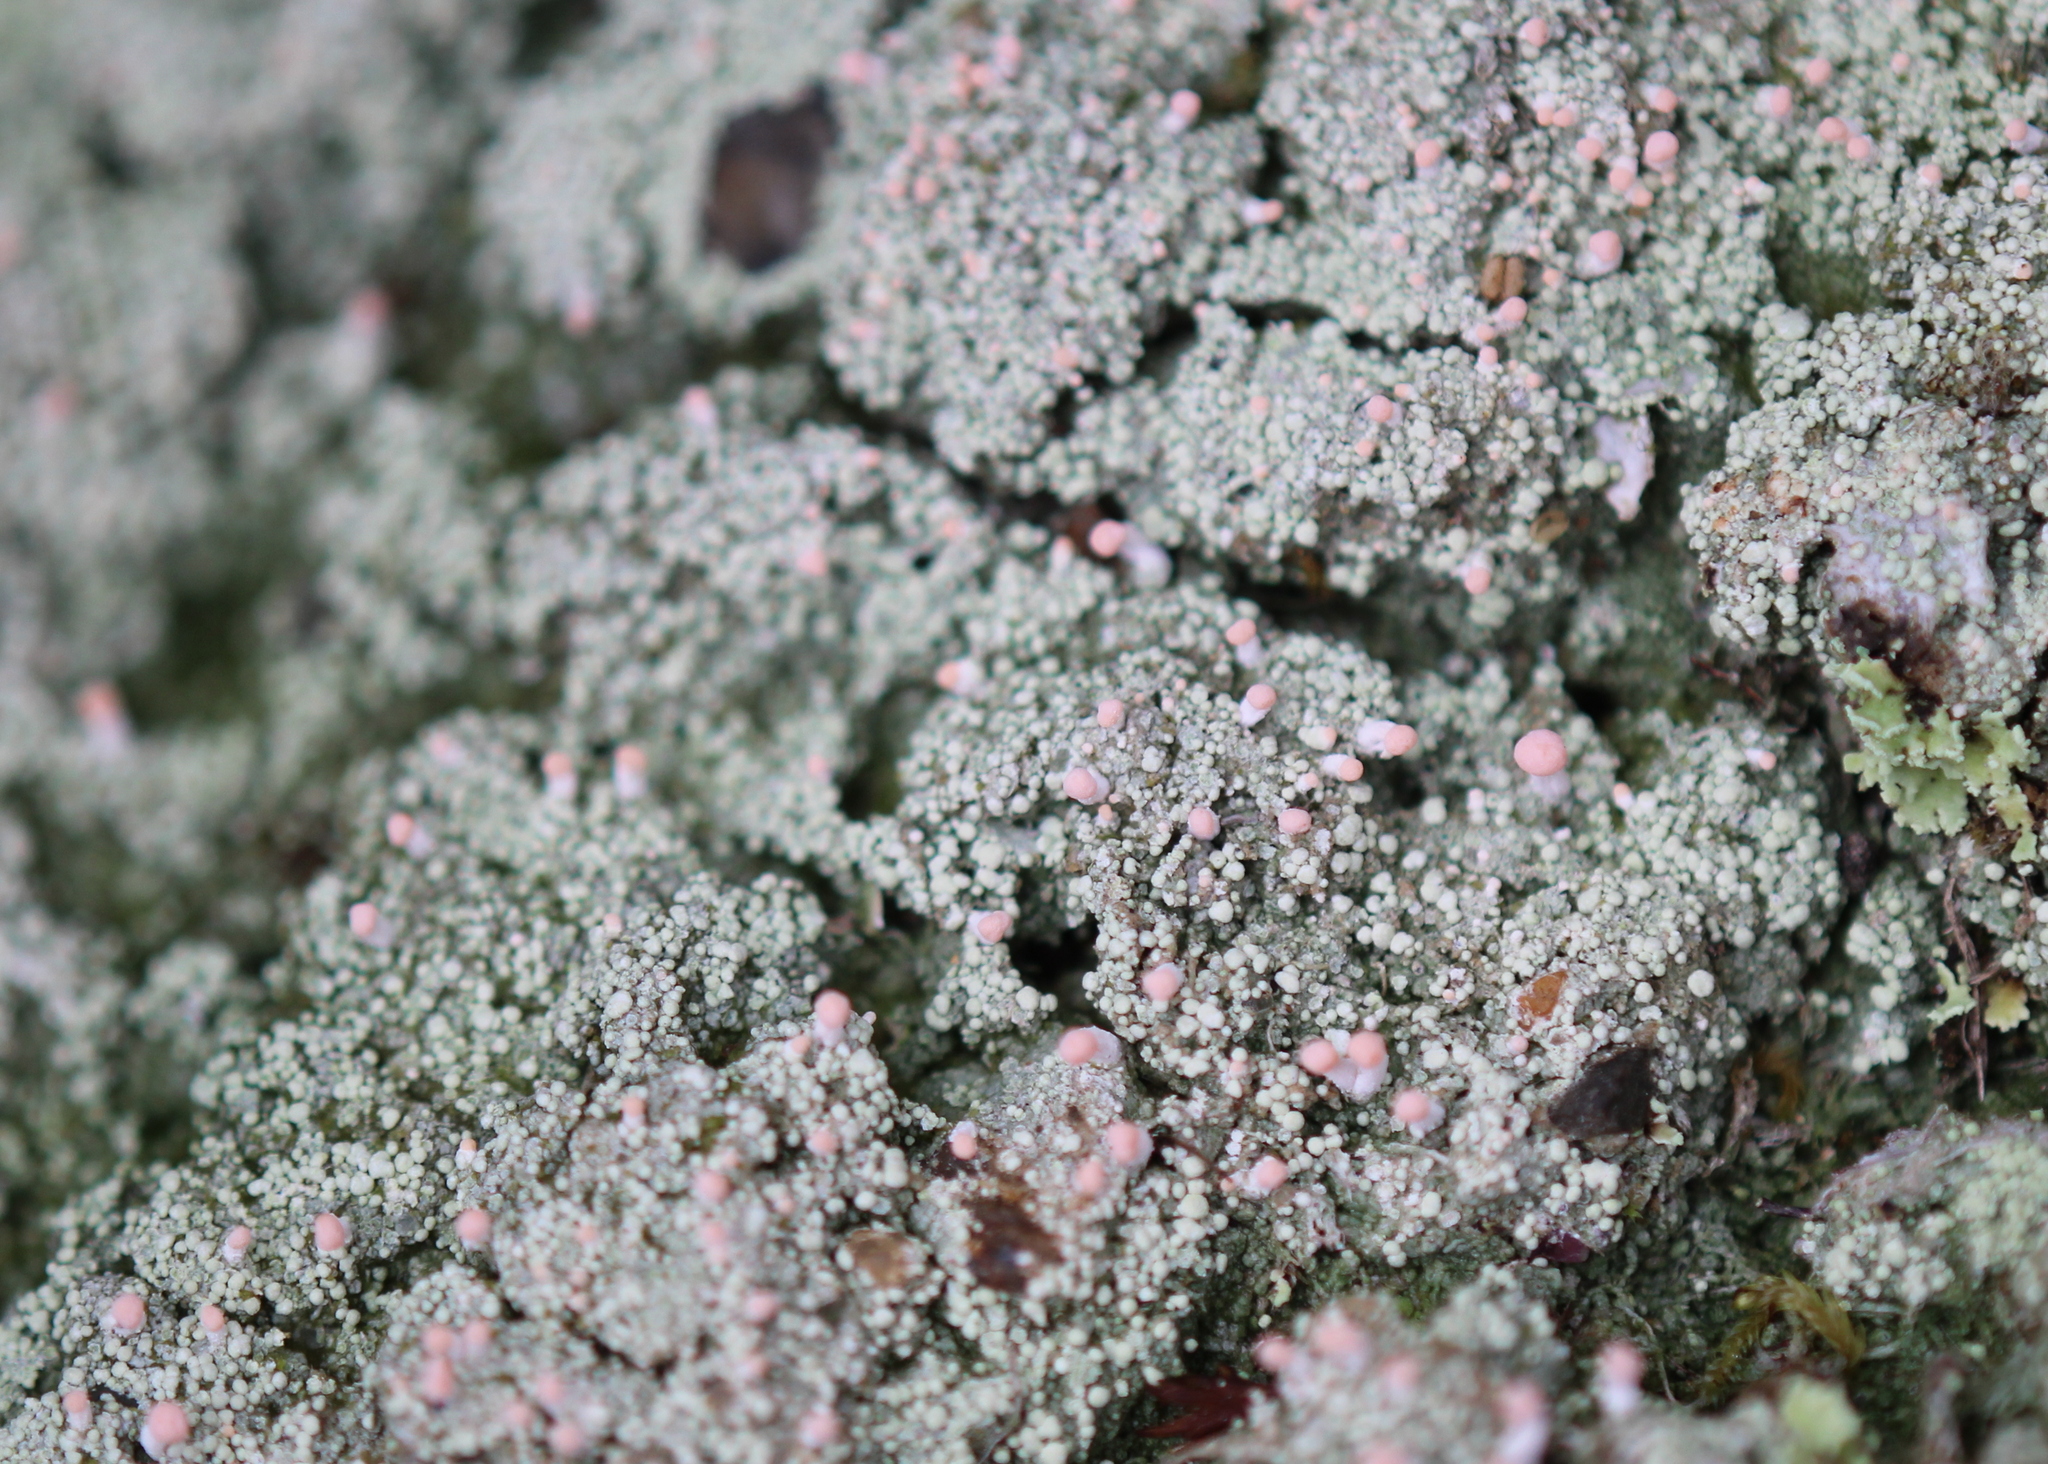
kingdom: Fungi
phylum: Ascomycota
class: Lecanoromycetes
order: Pertusariales
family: Icmadophilaceae
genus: Dibaeis
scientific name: Dibaeis baeomyces
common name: Pink earth lichen
